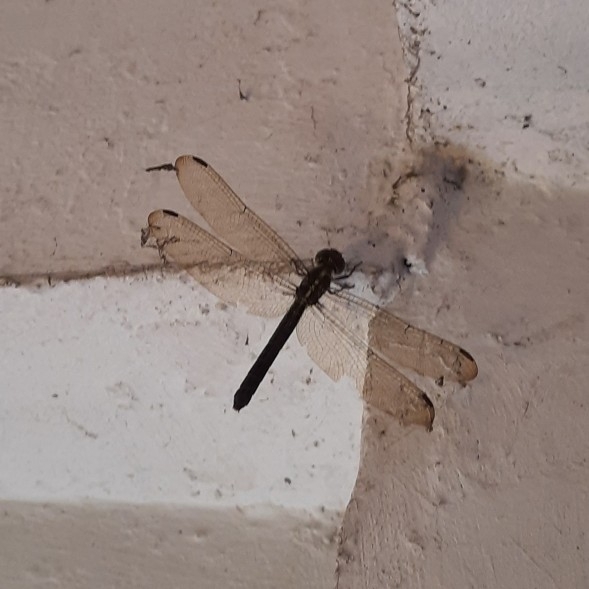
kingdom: Animalia
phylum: Arthropoda
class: Insecta
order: Odonata
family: Libellulidae
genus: Cratilla
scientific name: Cratilla lineata
